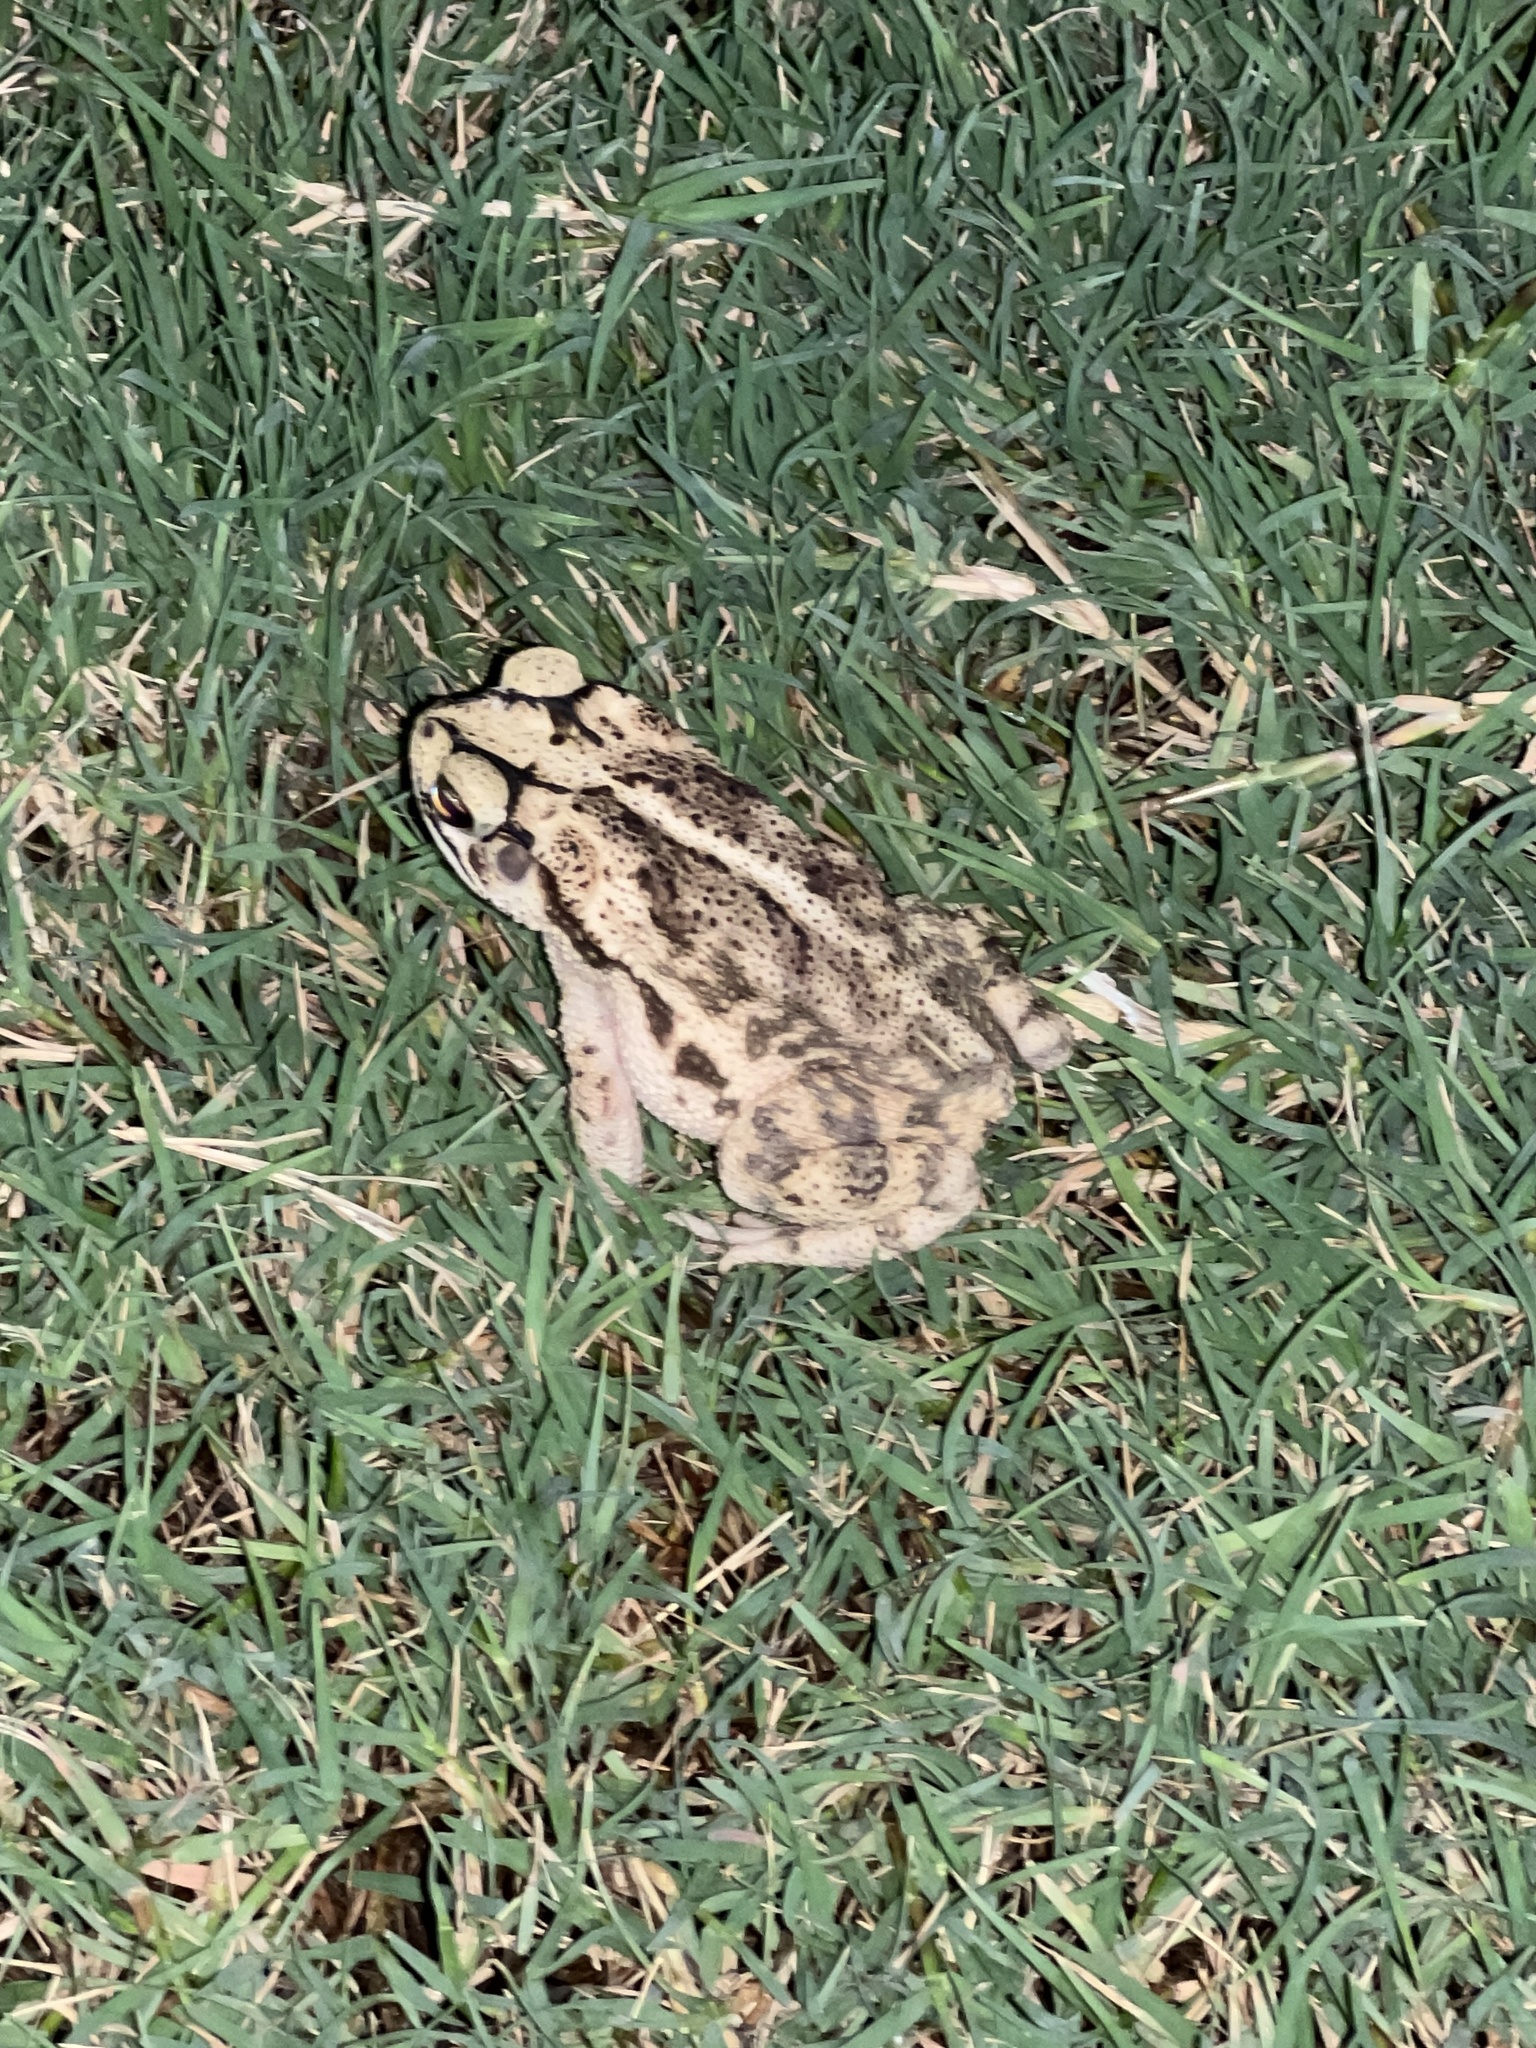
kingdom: Animalia
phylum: Chordata
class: Amphibia
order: Anura
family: Bufonidae
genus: Incilius
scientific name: Incilius nebulifer
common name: Gulf coast toad
